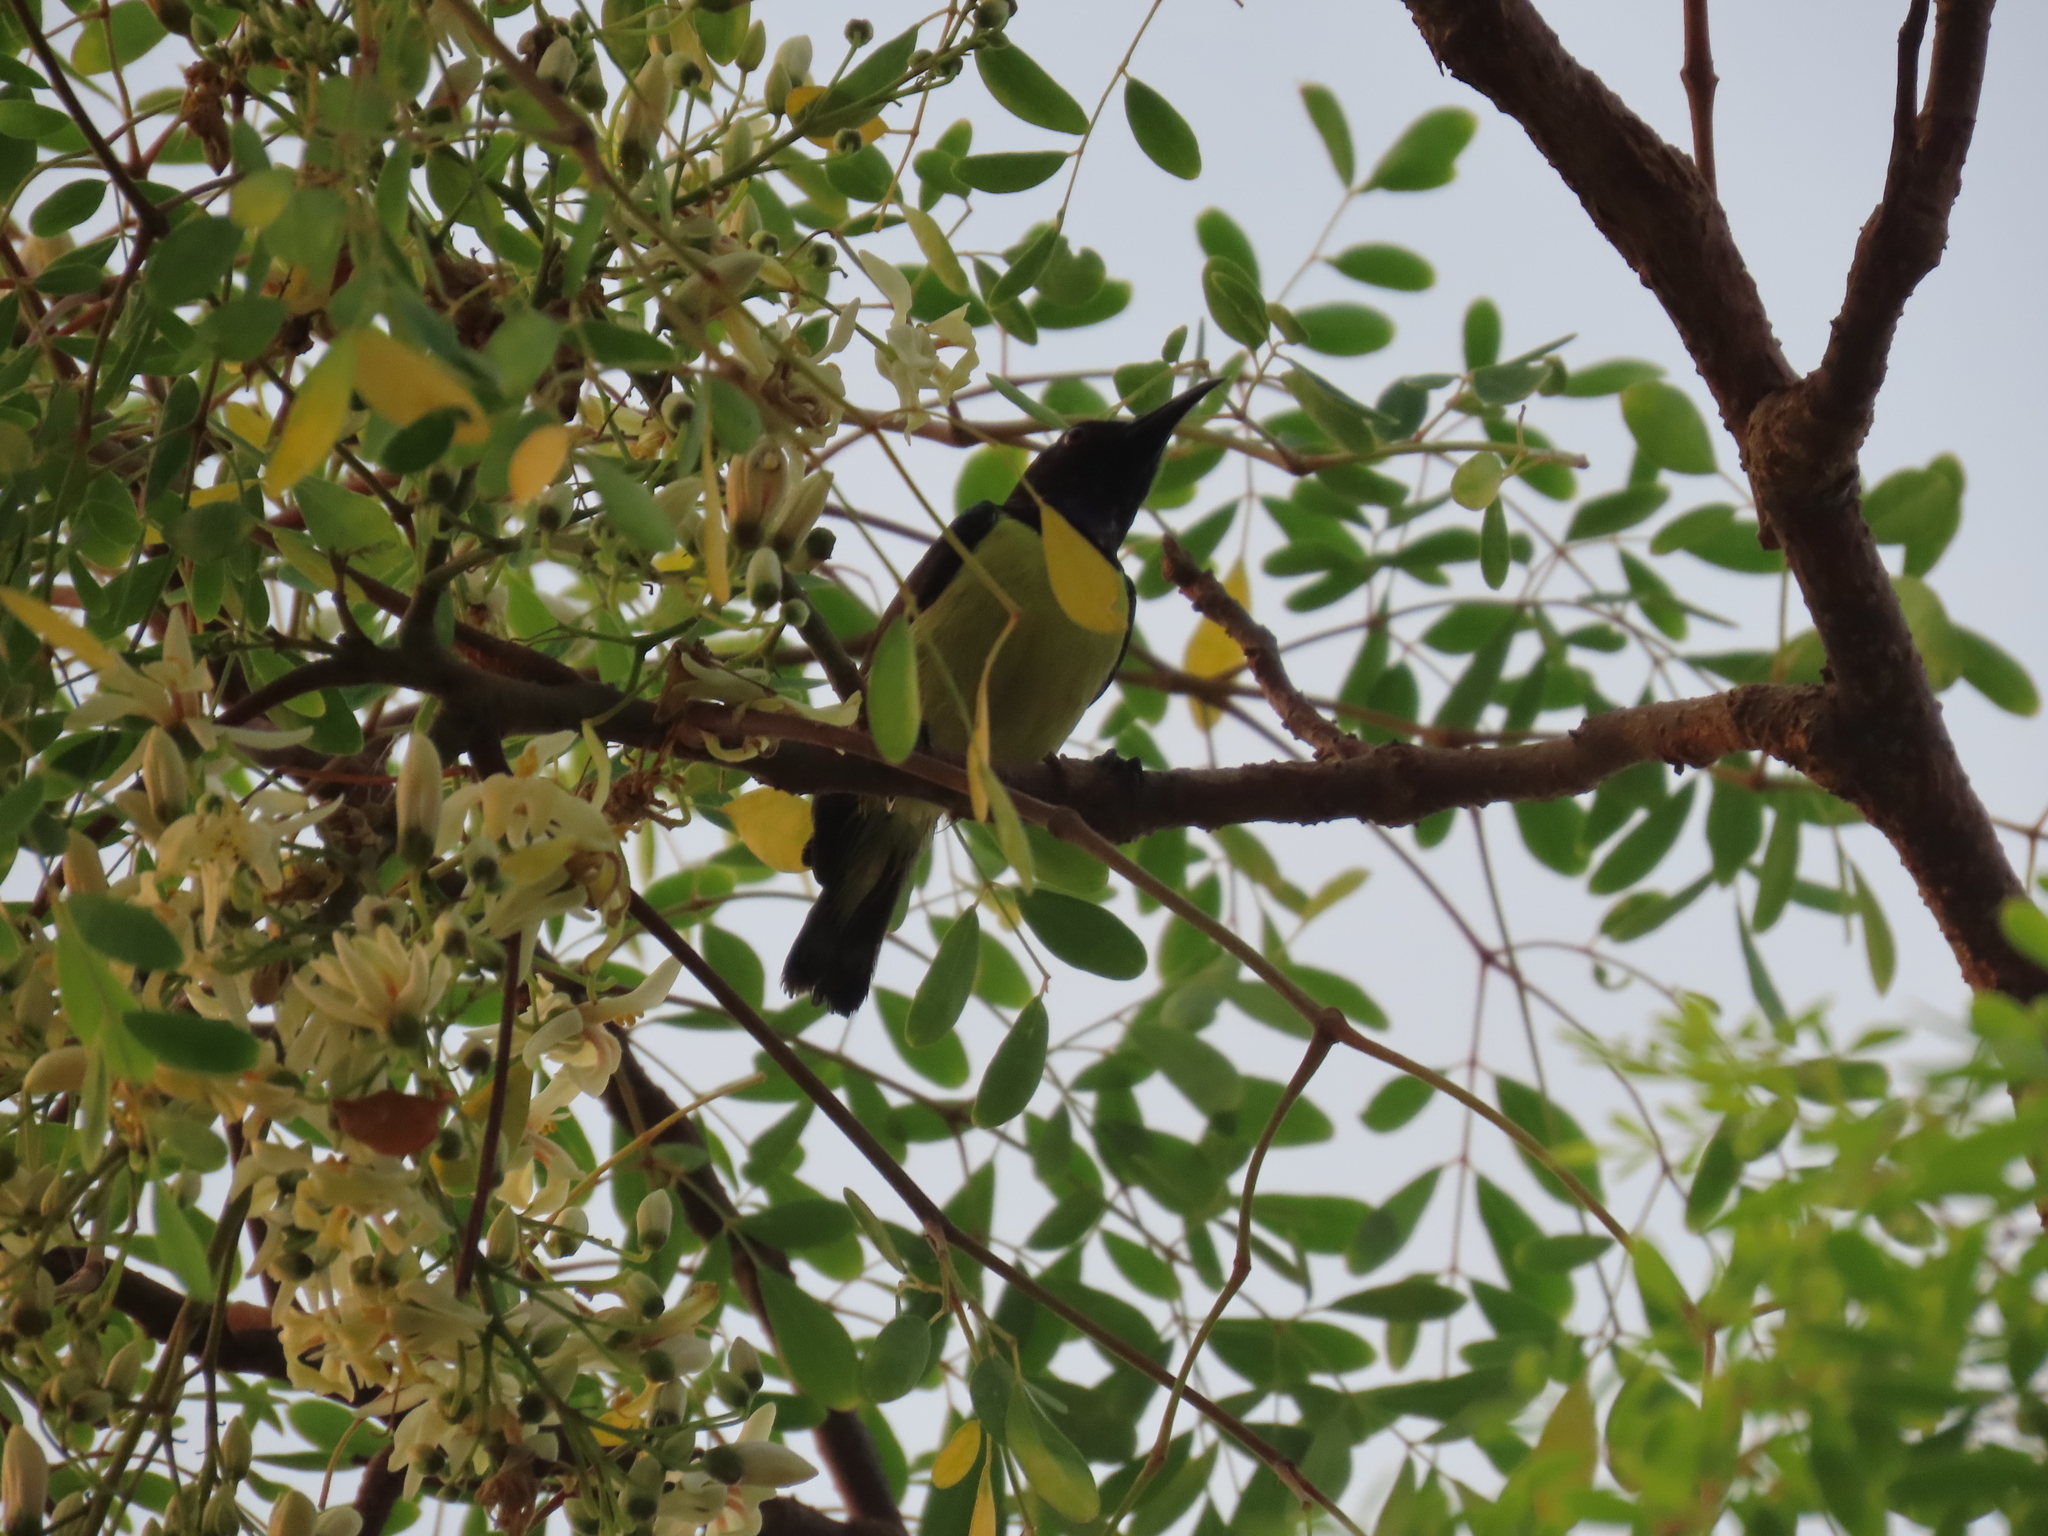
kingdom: Animalia
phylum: Chordata
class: Aves
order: Passeriformes
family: Nectariniidae
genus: Leptocoma
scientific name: Leptocoma zeylonica
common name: Purple-rumped sunbird
